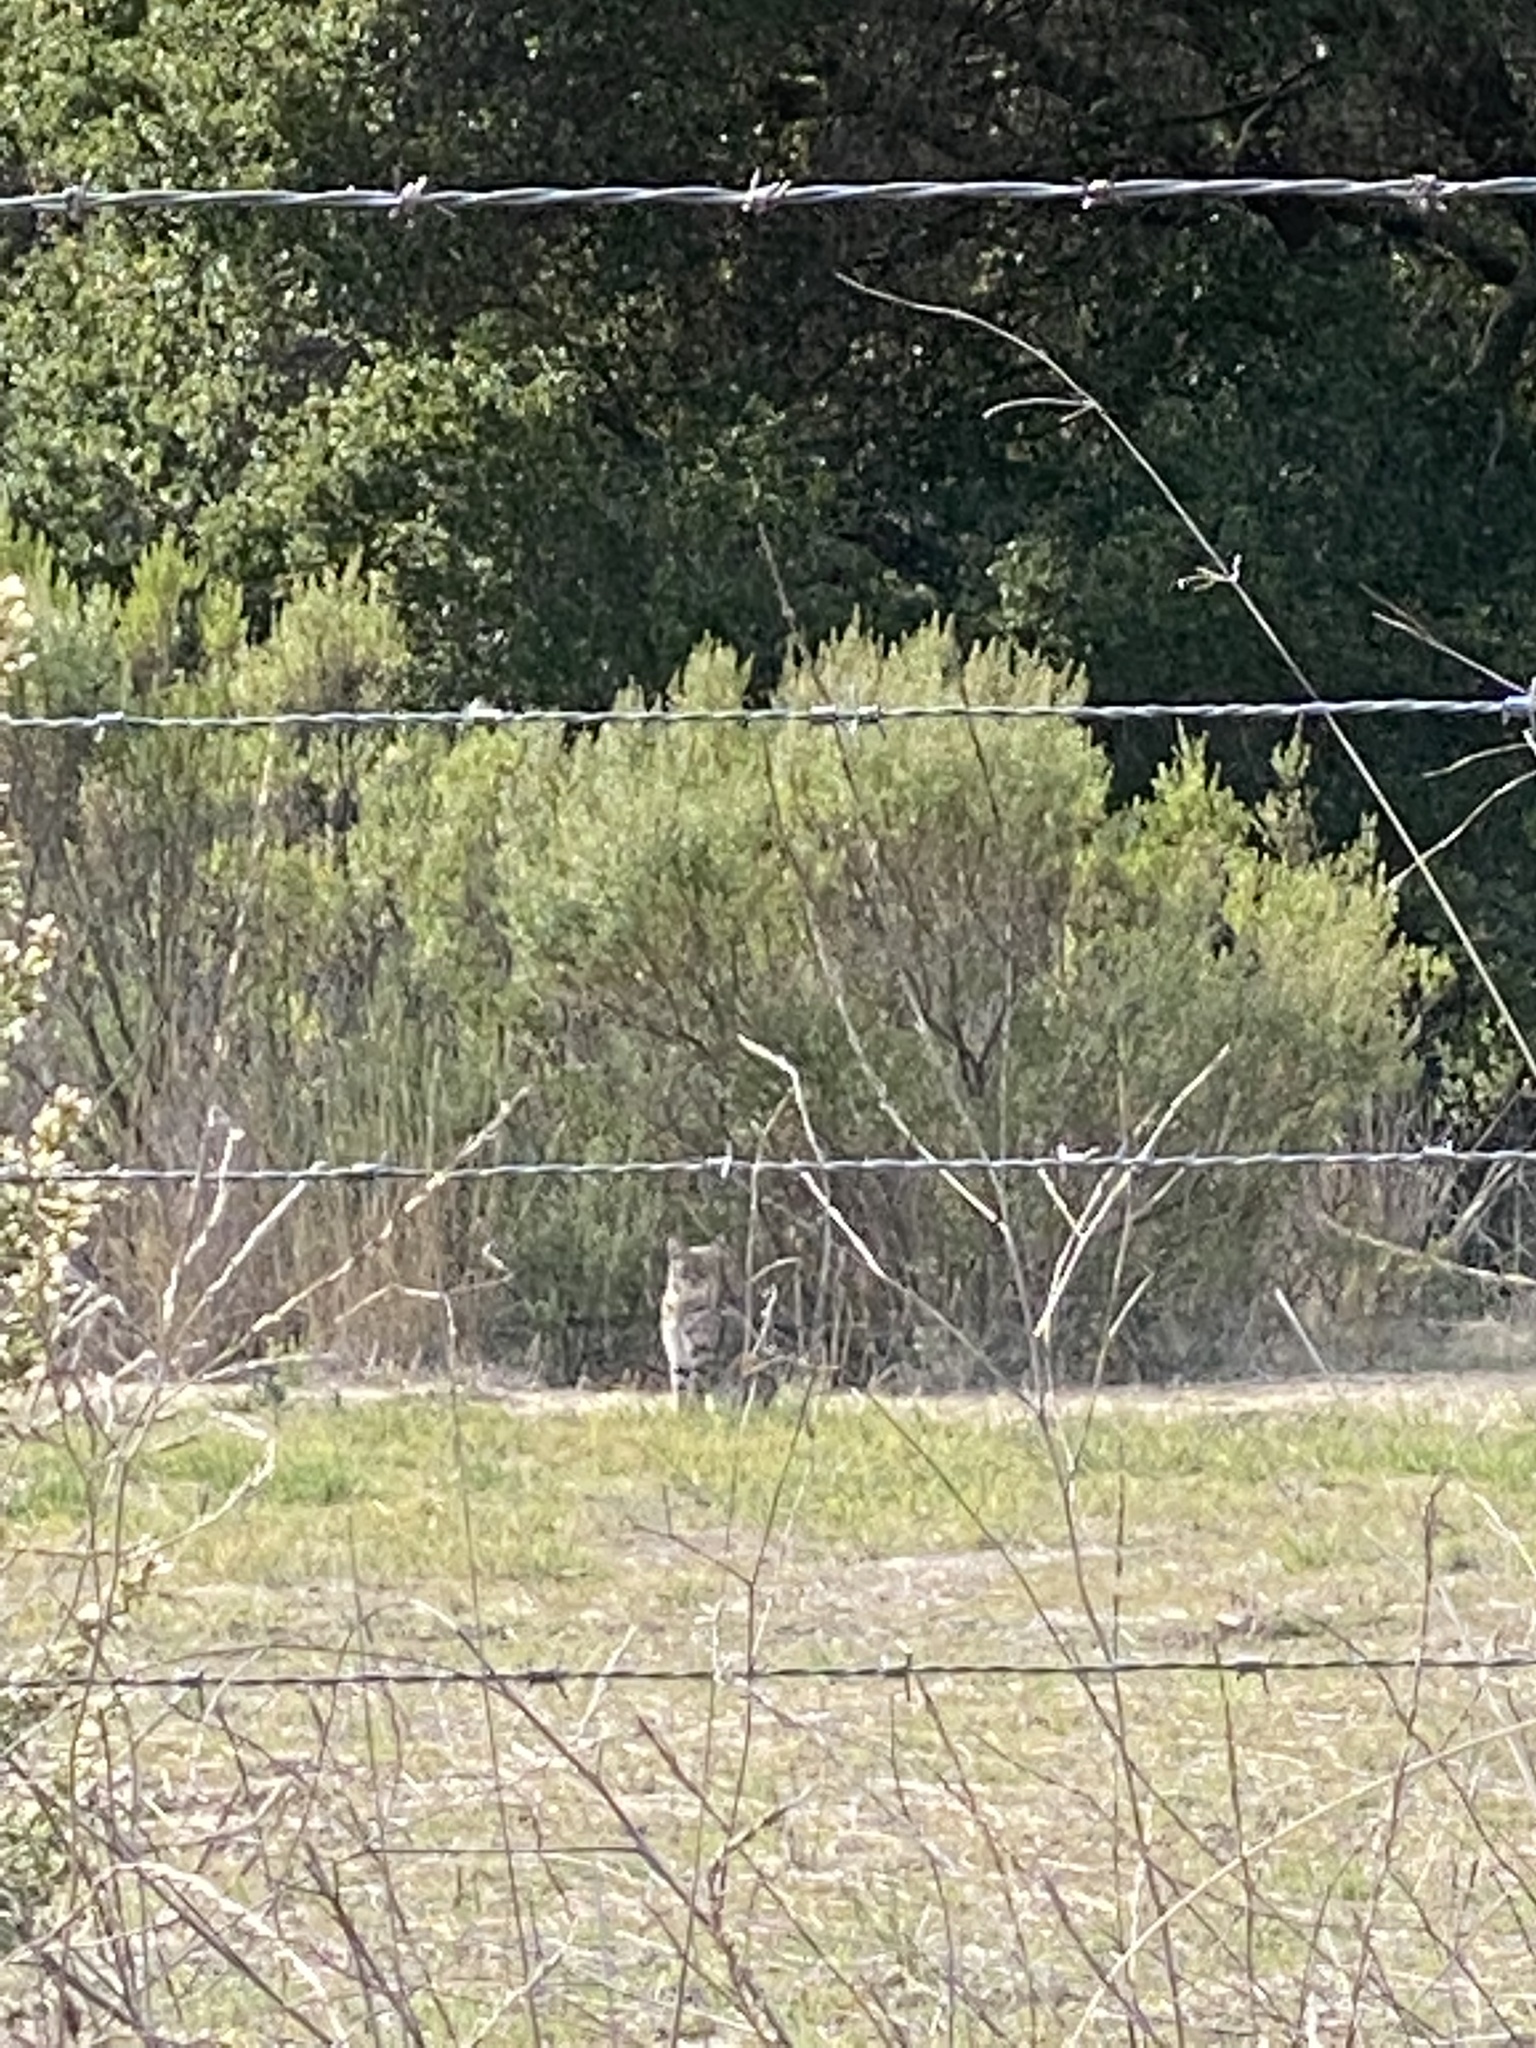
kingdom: Animalia
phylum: Chordata
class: Mammalia
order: Carnivora
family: Felidae
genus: Lynx
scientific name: Lynx rufus
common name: Bobcat
